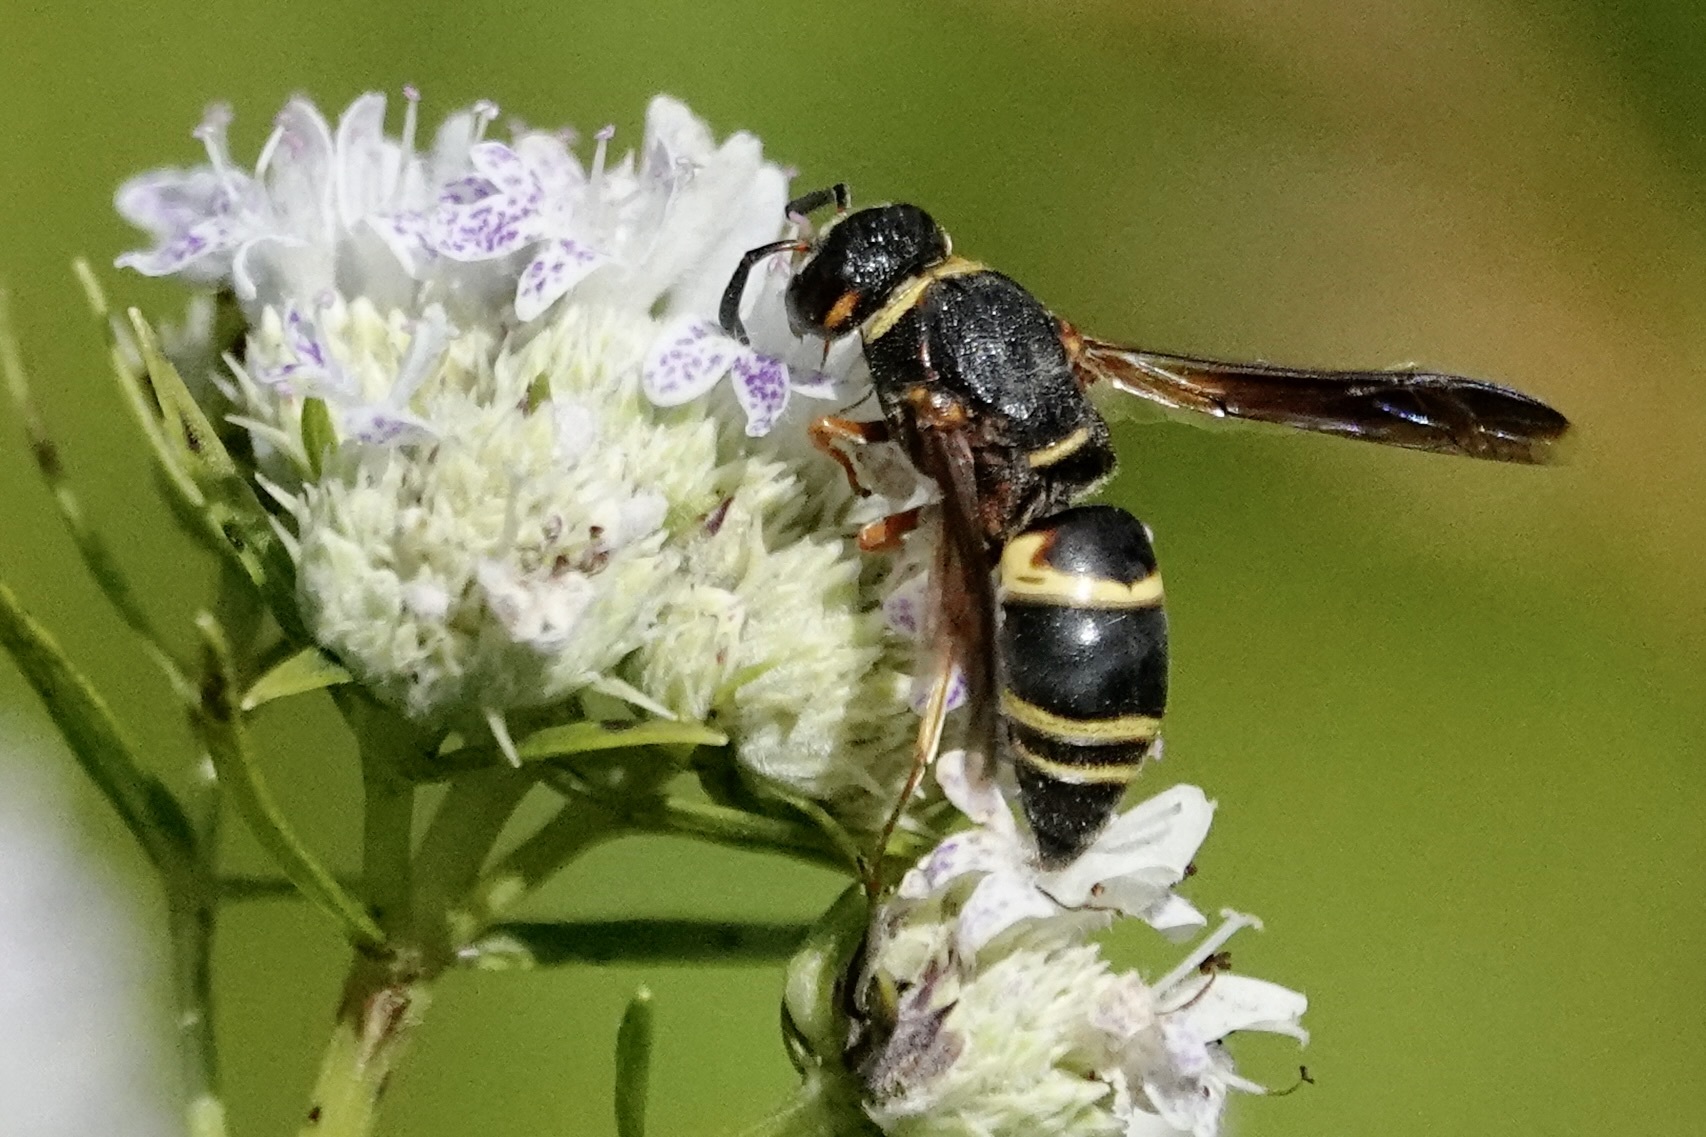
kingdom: Animalia
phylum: Arthropoda
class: Insecta
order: Hymenoptera
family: Eumenidae
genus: Euodynerus
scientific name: Euodynerus hidalgo
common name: Wasp
